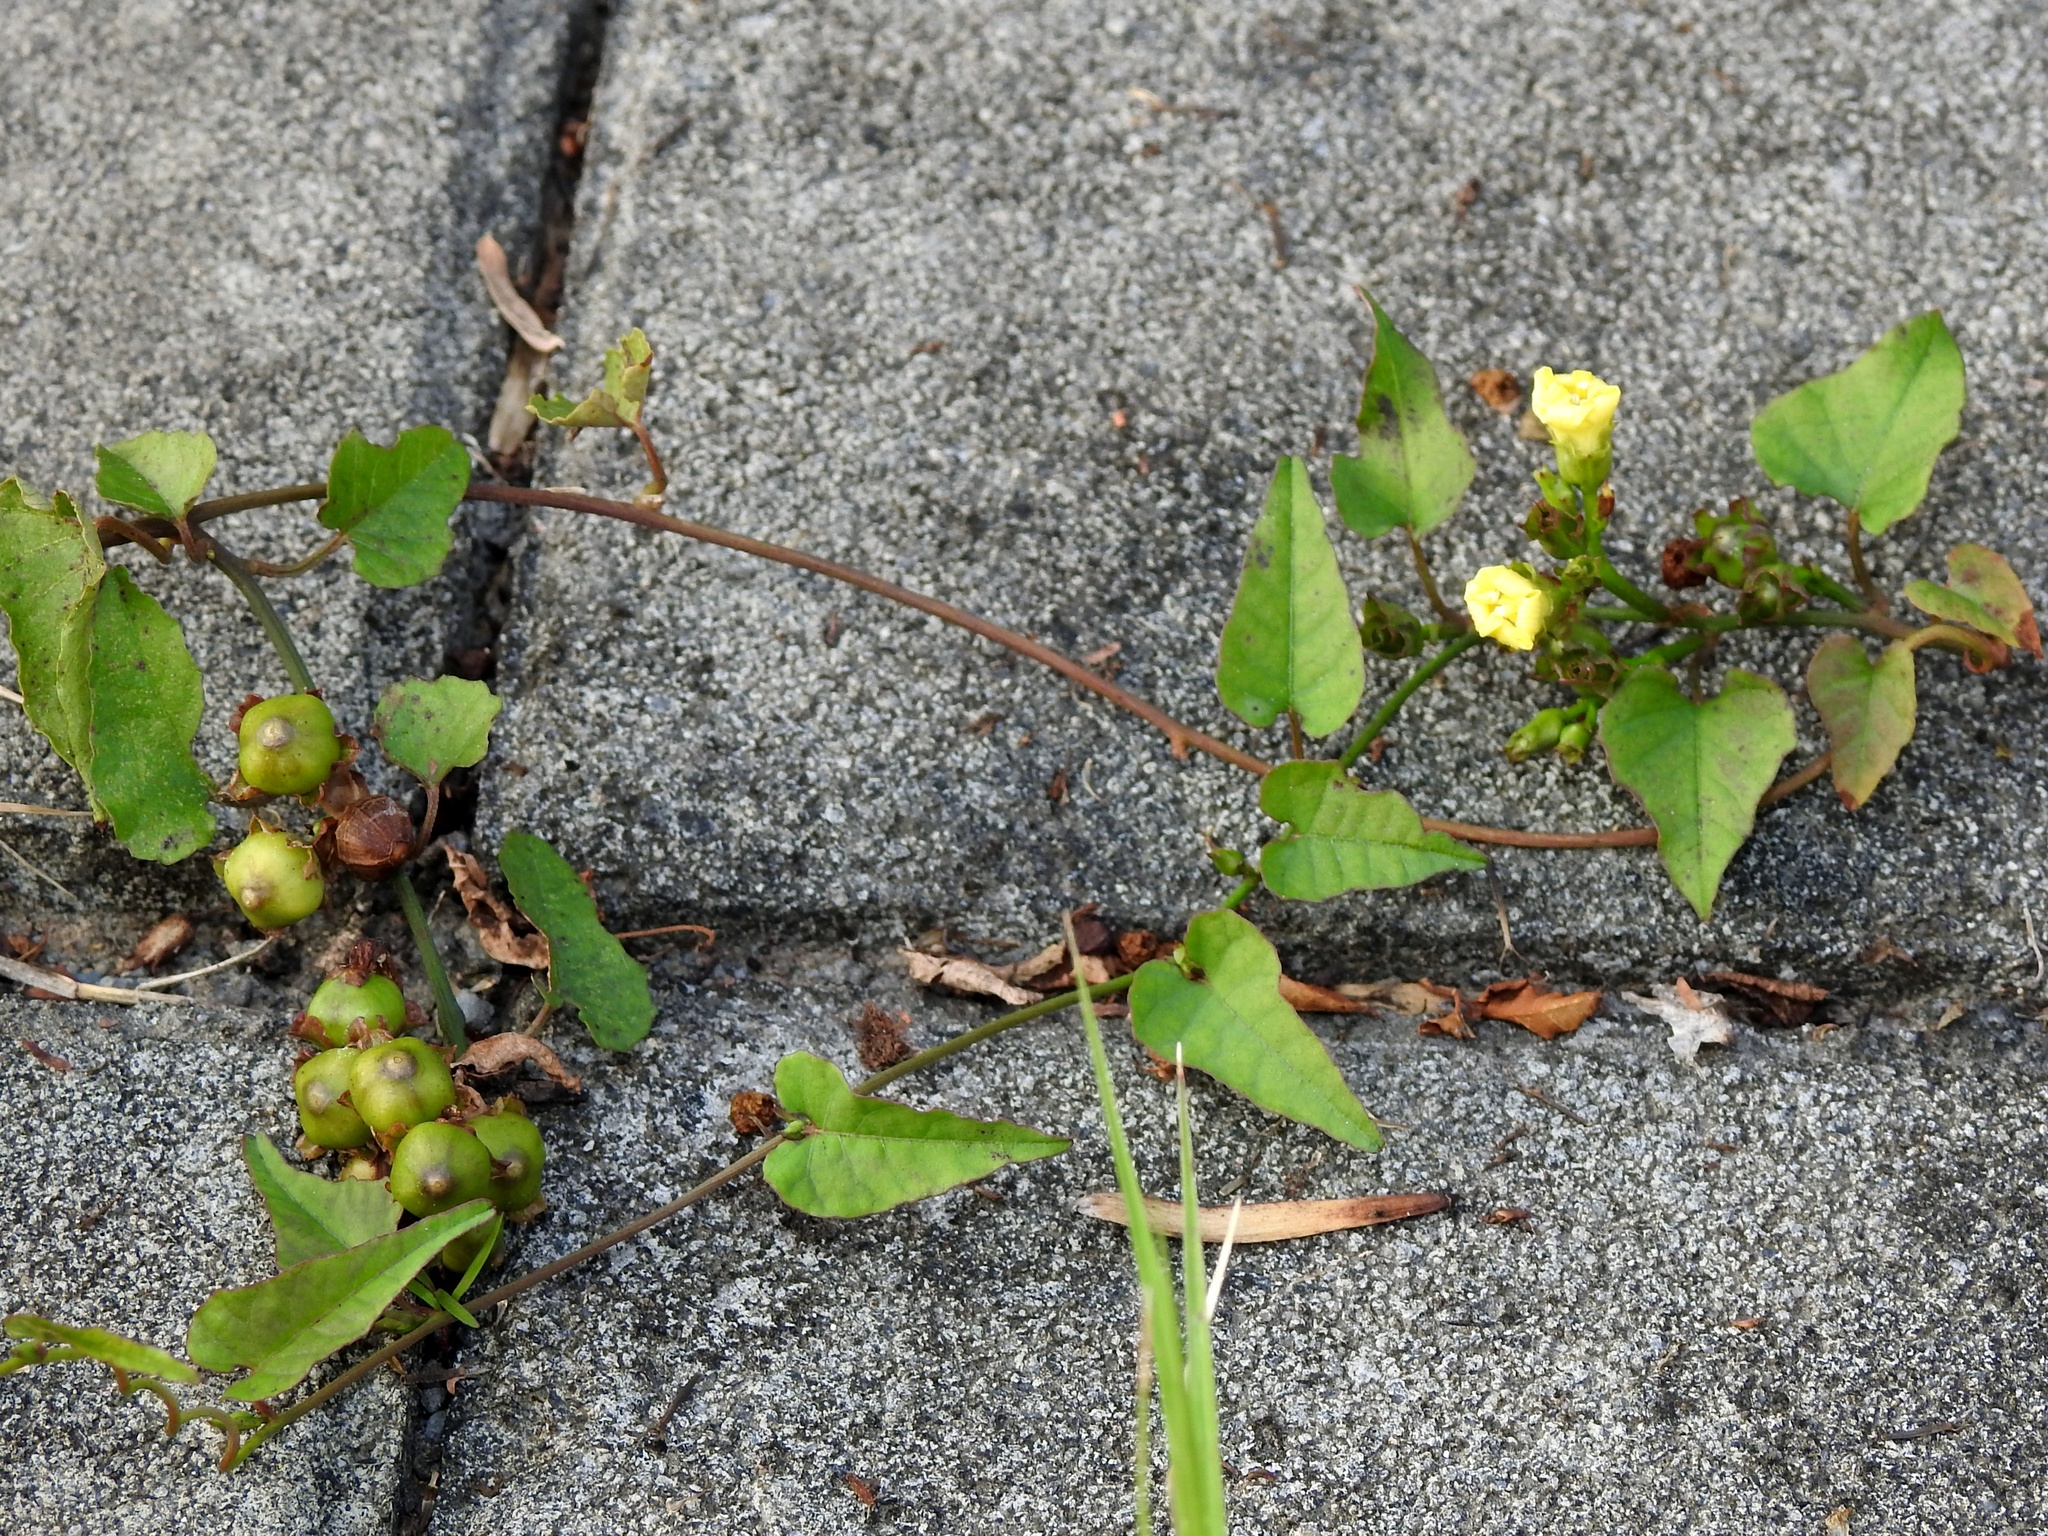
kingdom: Plantae
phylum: Tracheophyta
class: Magnoliopsida
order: Solanales
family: Convolvulaceae
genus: Merremia
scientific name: Merremia hederacea
